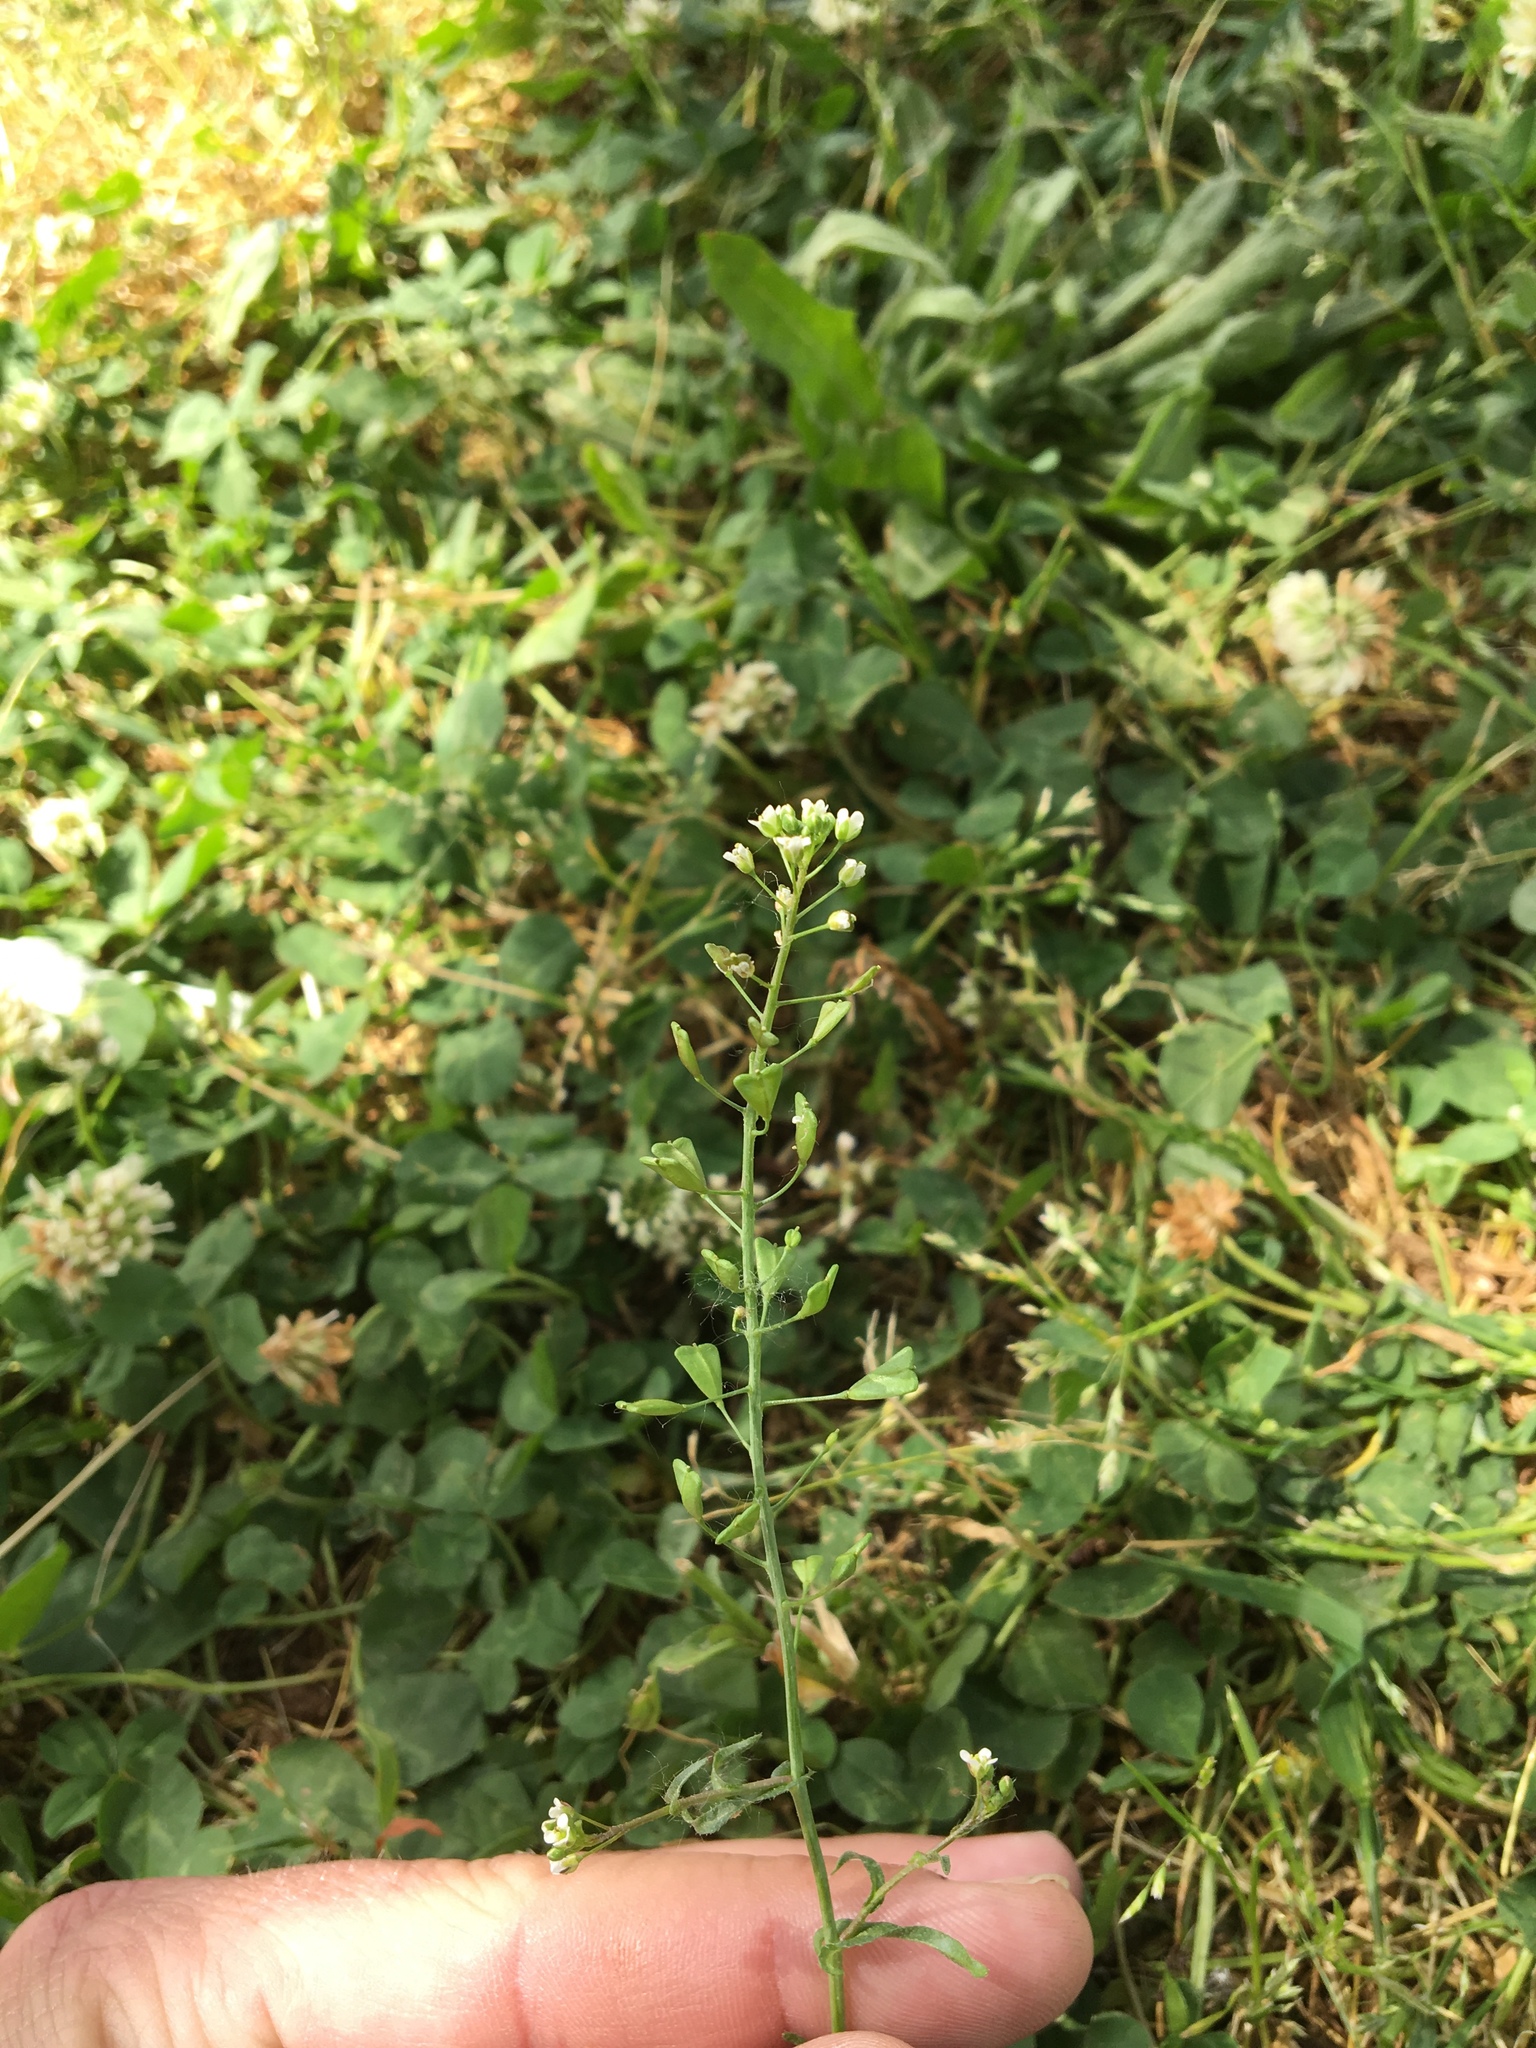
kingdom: Plantae
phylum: Tracheophyta
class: Magnoliopsida
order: Brassicales
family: Brassicaceae
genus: Capsella
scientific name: Capsella bursa-pastoris
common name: Shepherd's purse
